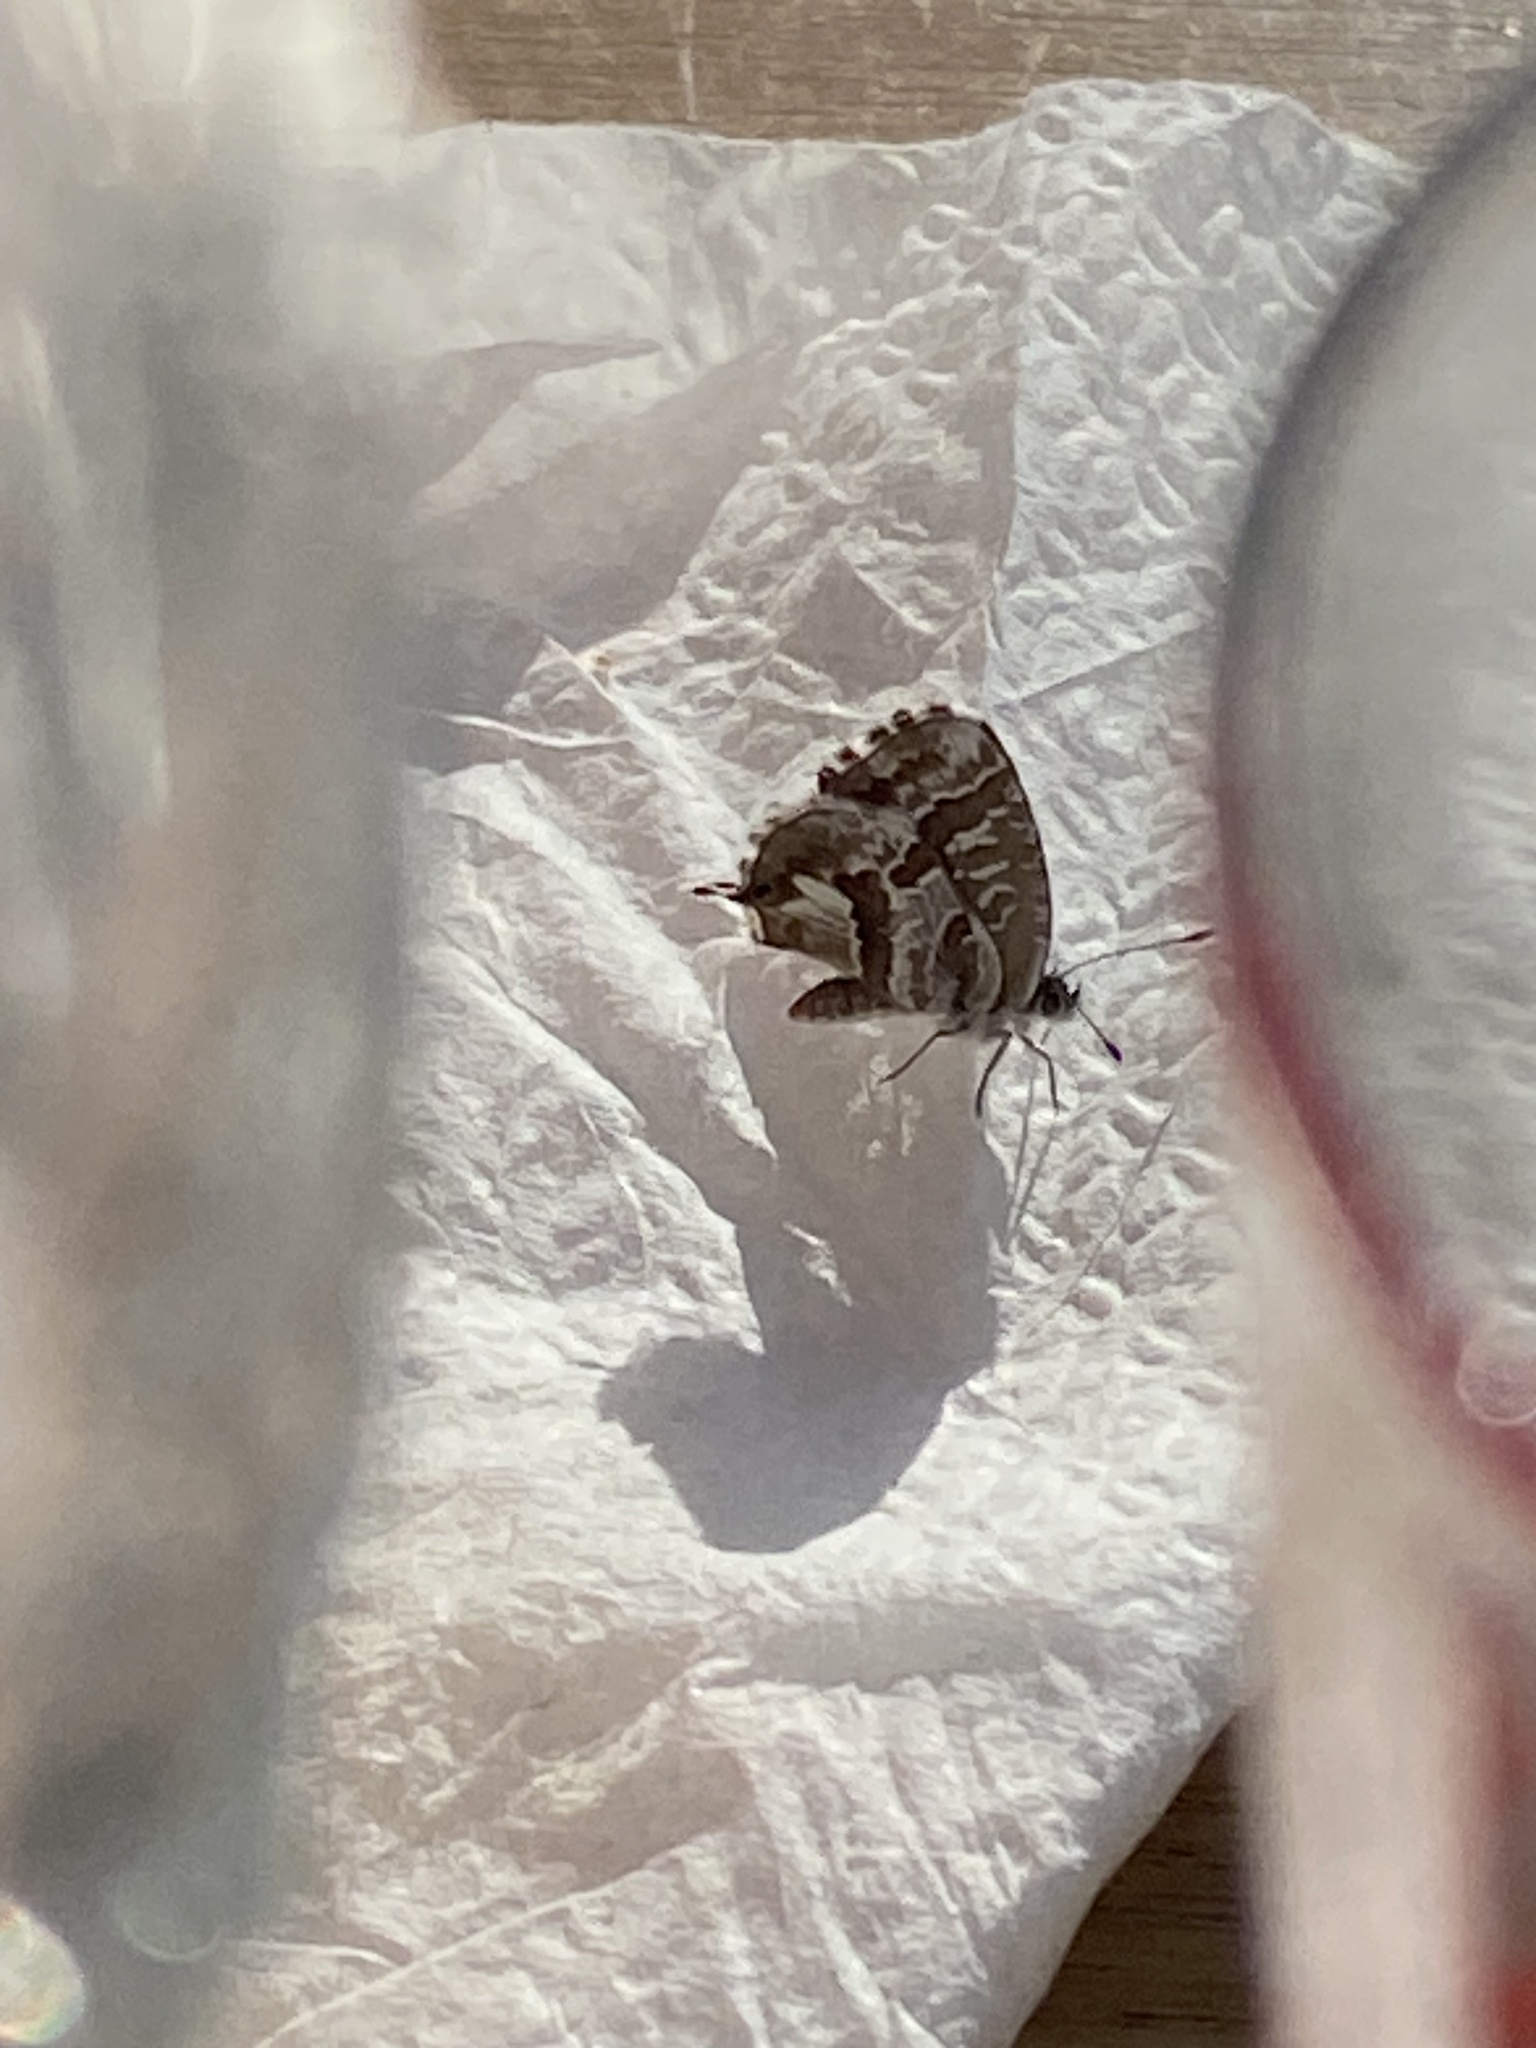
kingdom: Animalia
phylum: Arthropoda
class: Insecta
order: Lepidoptera
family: Lycaenidae
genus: Cacyreus
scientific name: Cacyreus marshalli
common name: Geranium bronze
